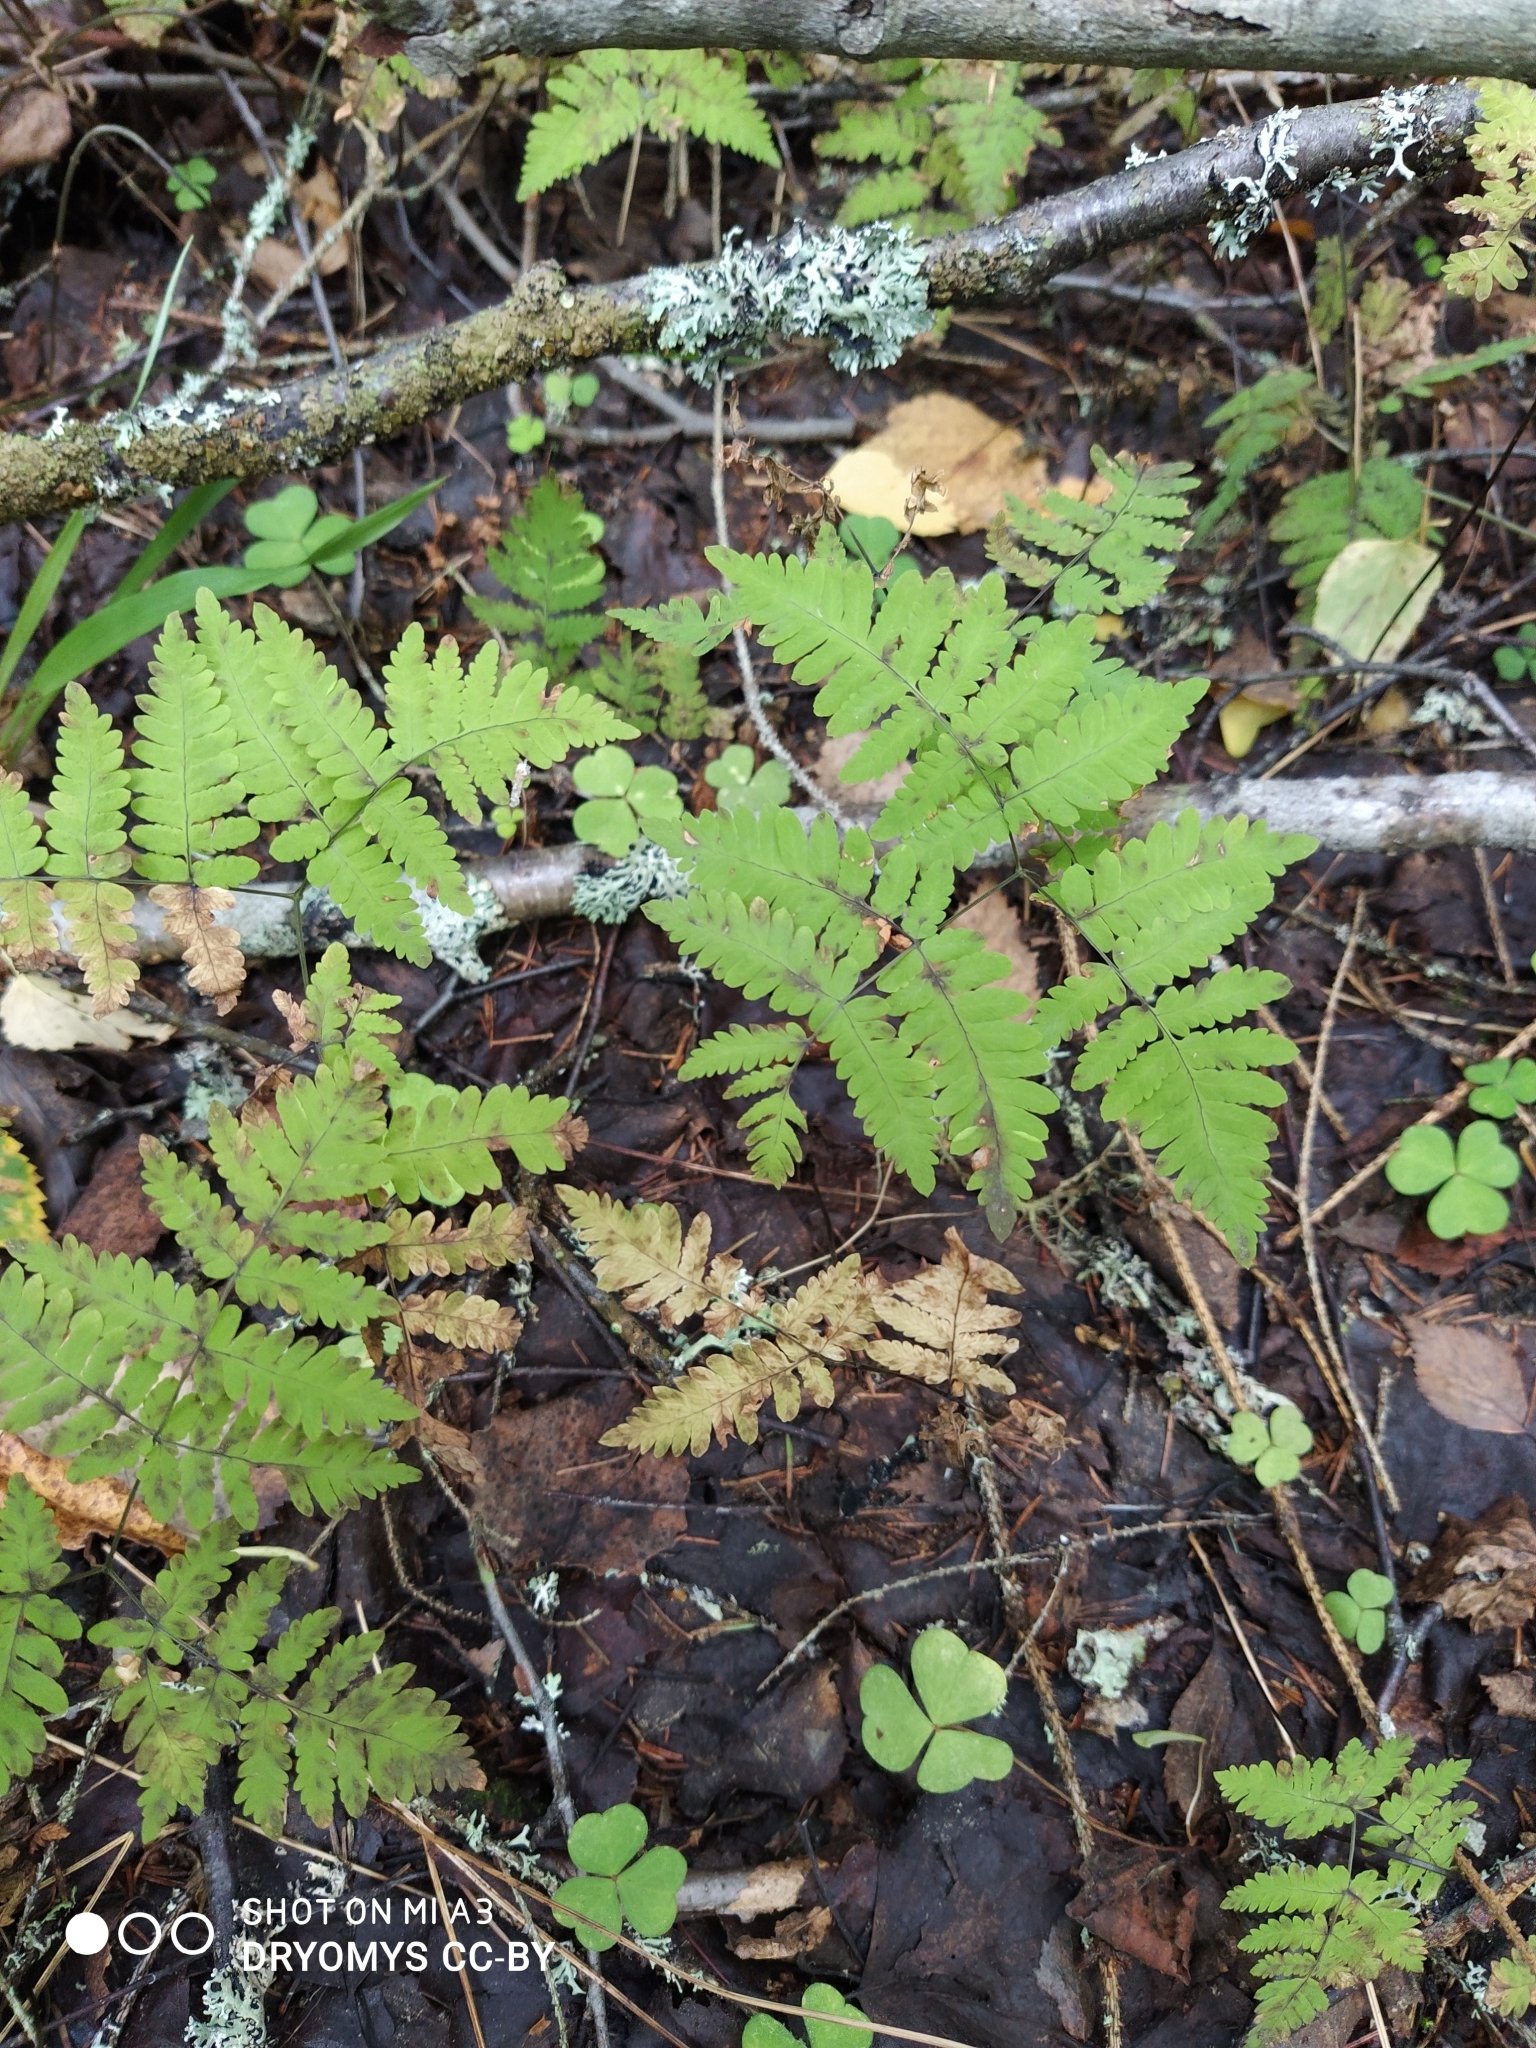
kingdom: Plantae
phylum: Tracheophyta
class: Polypodiopsida
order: Polypodiales
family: Cystopteridaceae
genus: Gymnocarpium
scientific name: Gymnocarpium dryopteris
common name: Oak fern
